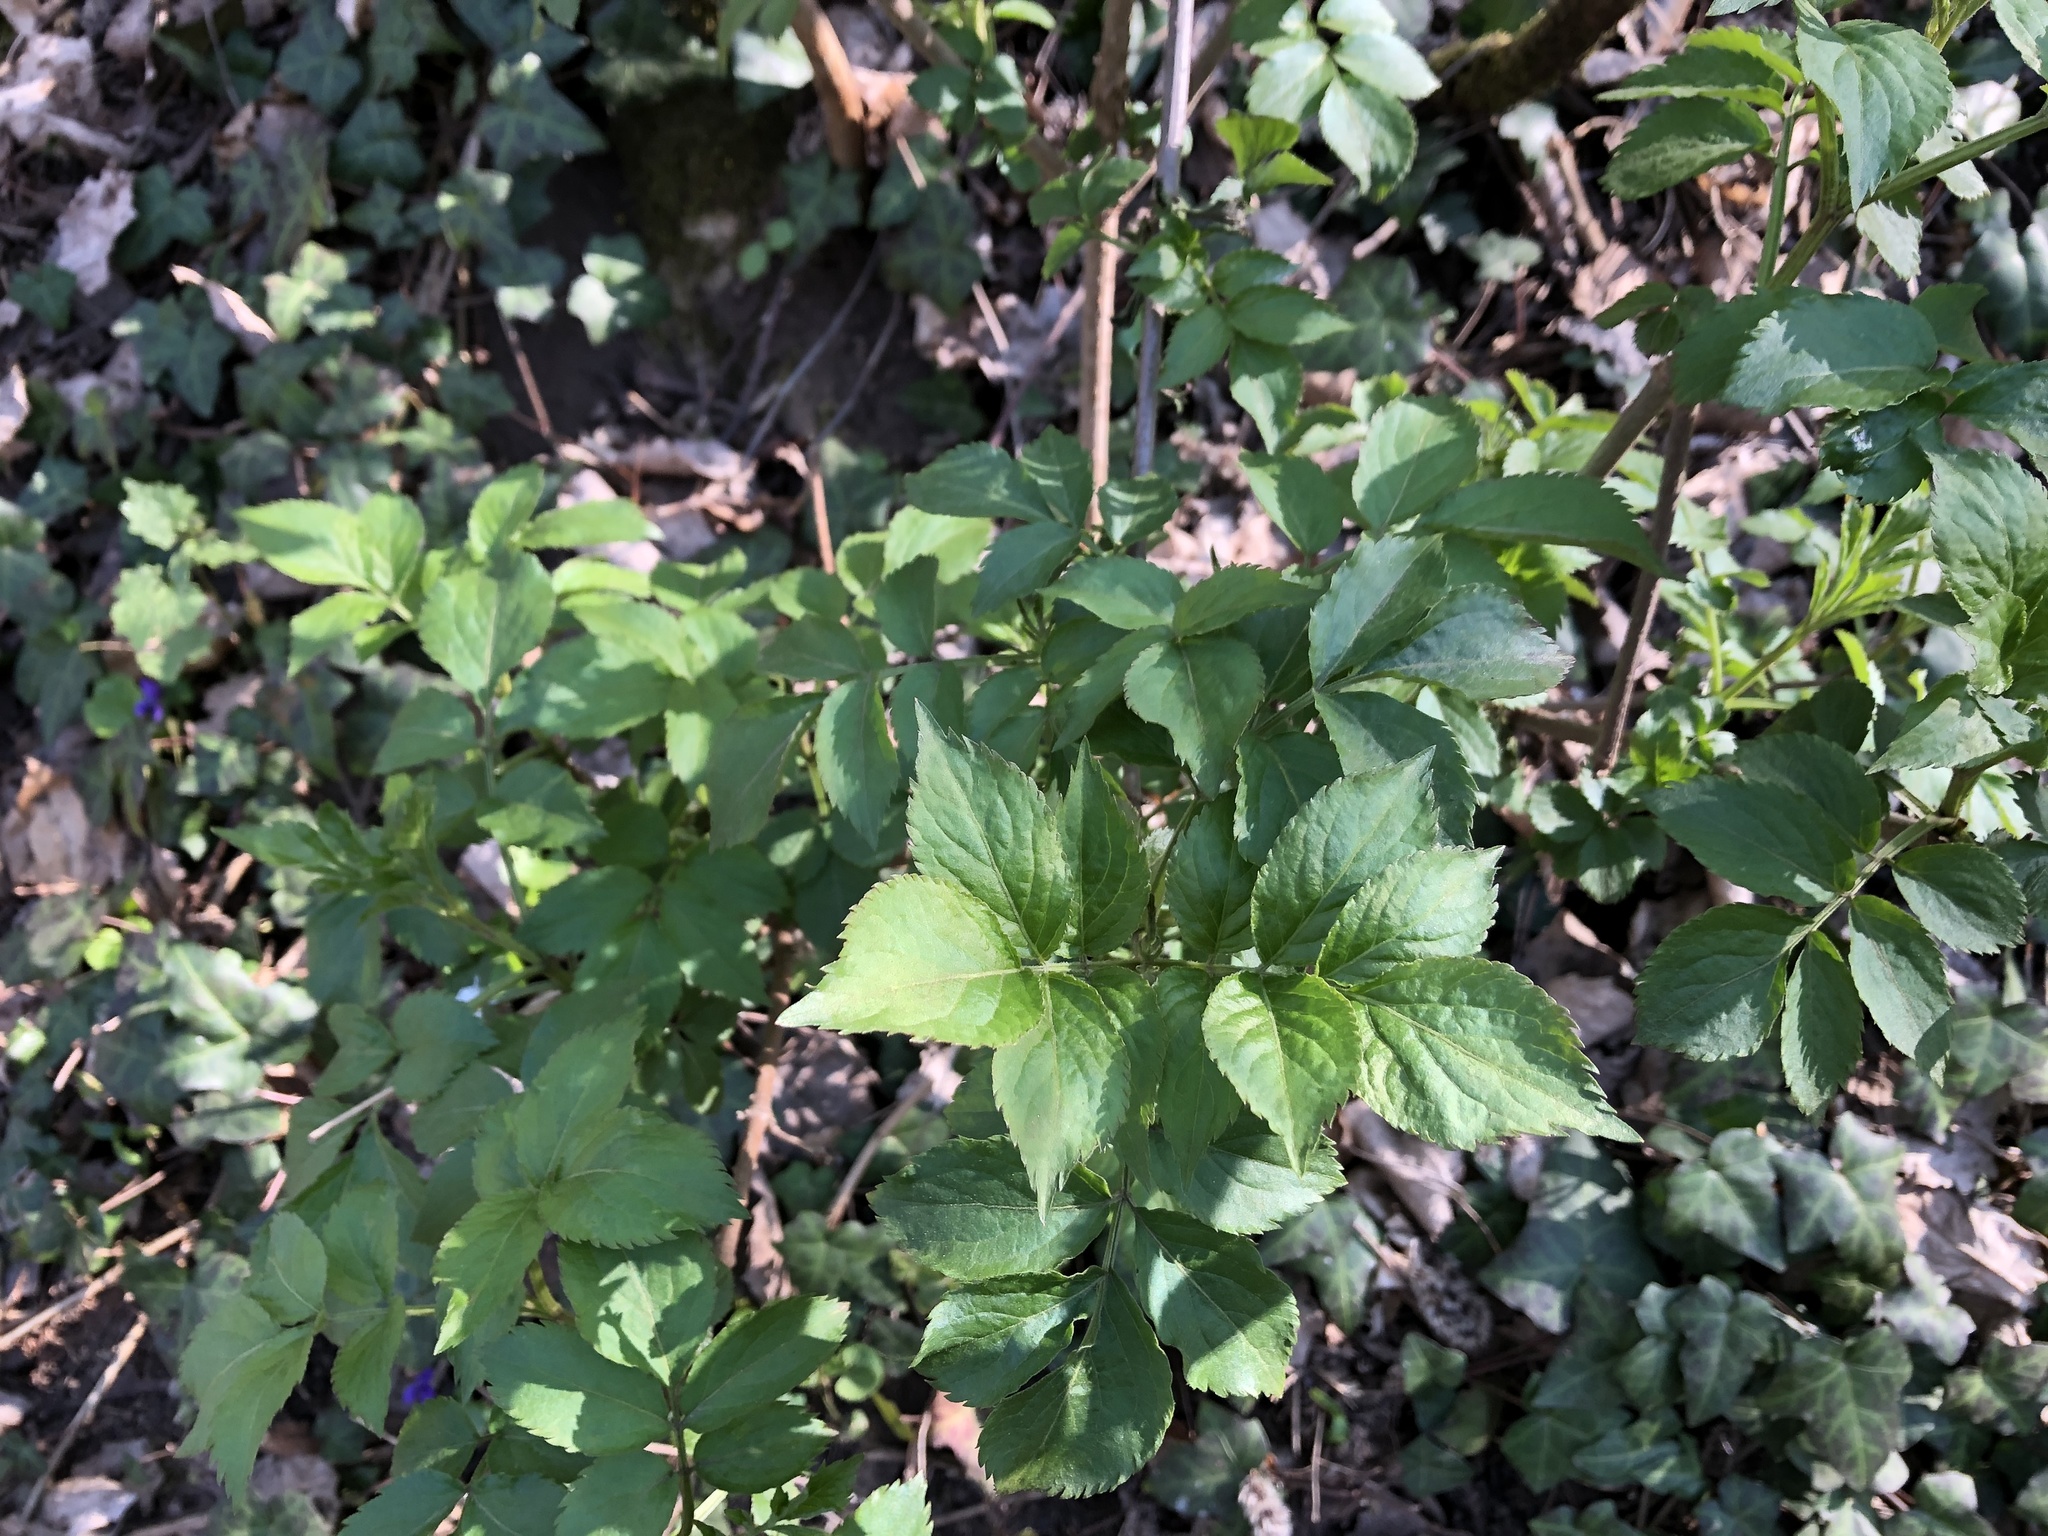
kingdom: Plantae
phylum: Tracheophyta
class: Magnoliopsida
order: Dipsacales
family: Viburnaceae
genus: Sambucus
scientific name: Sambucus nigra
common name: Elder
